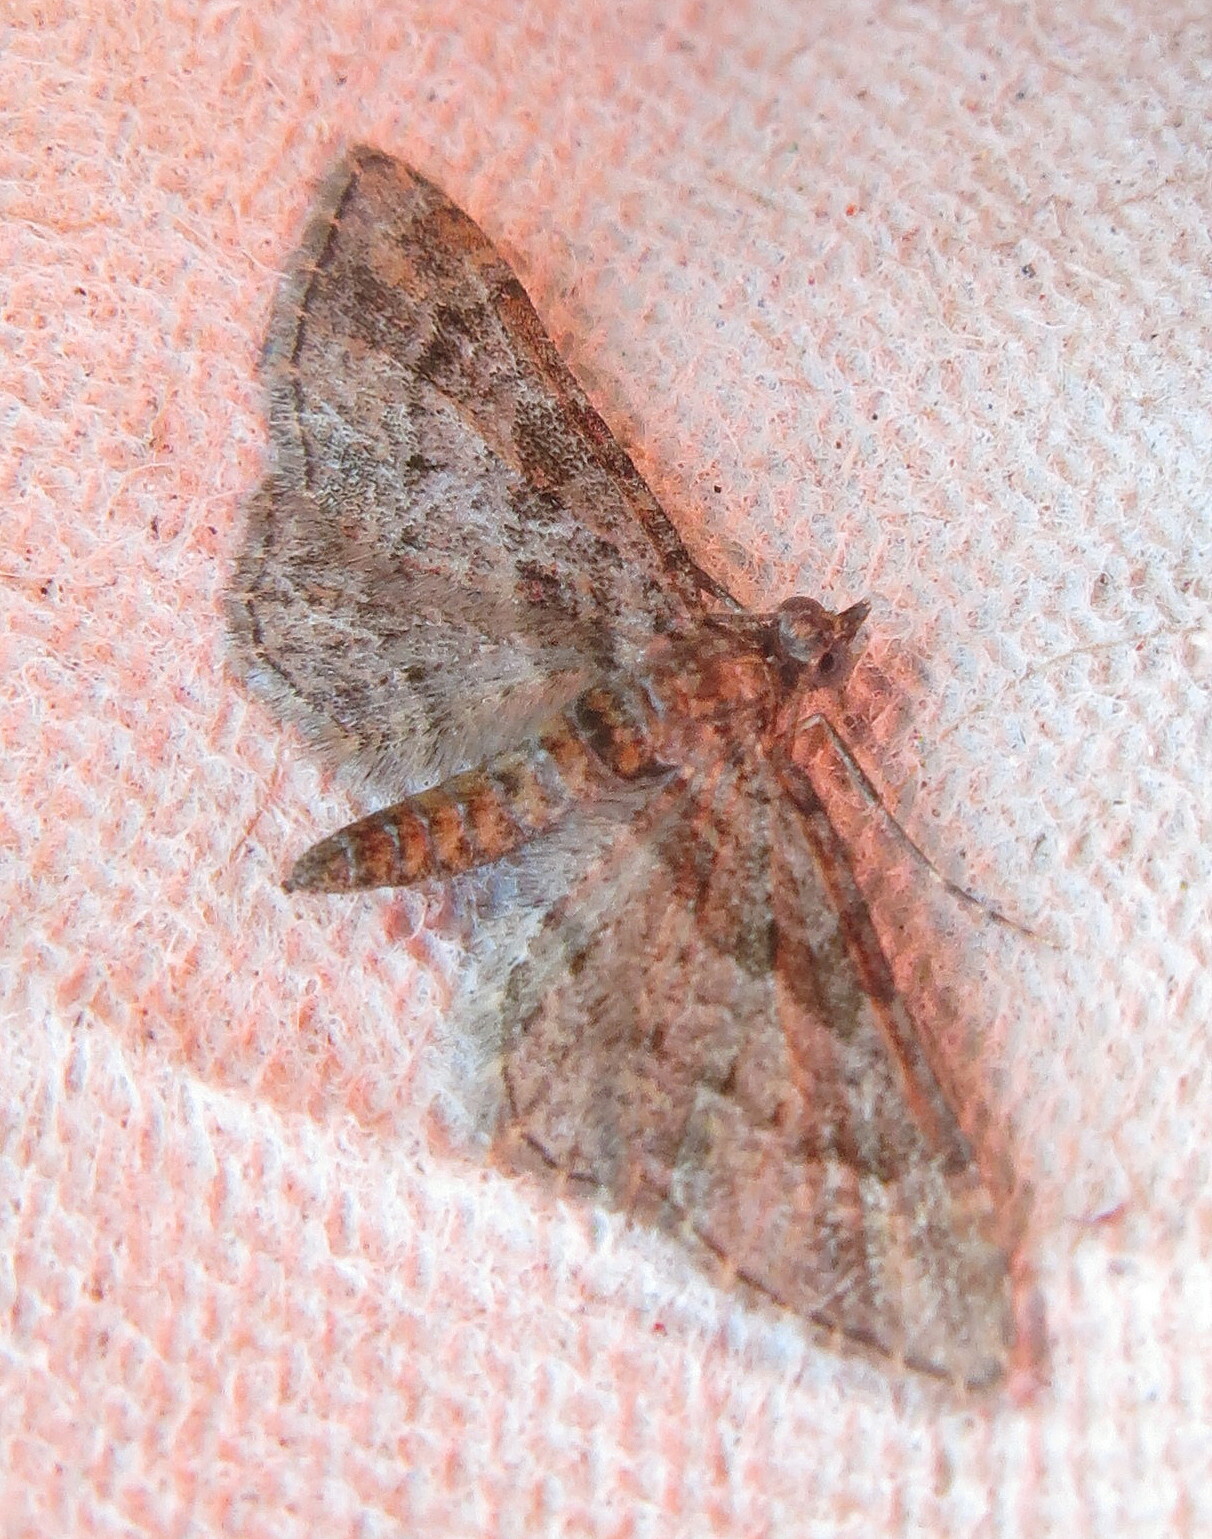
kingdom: Animalia
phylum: Arthropoda
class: Insecta
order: Lepidoptera
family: Geometridae
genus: Gymnoscelis
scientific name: Gymnoscelis rufifasciata
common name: Double-striped pug
